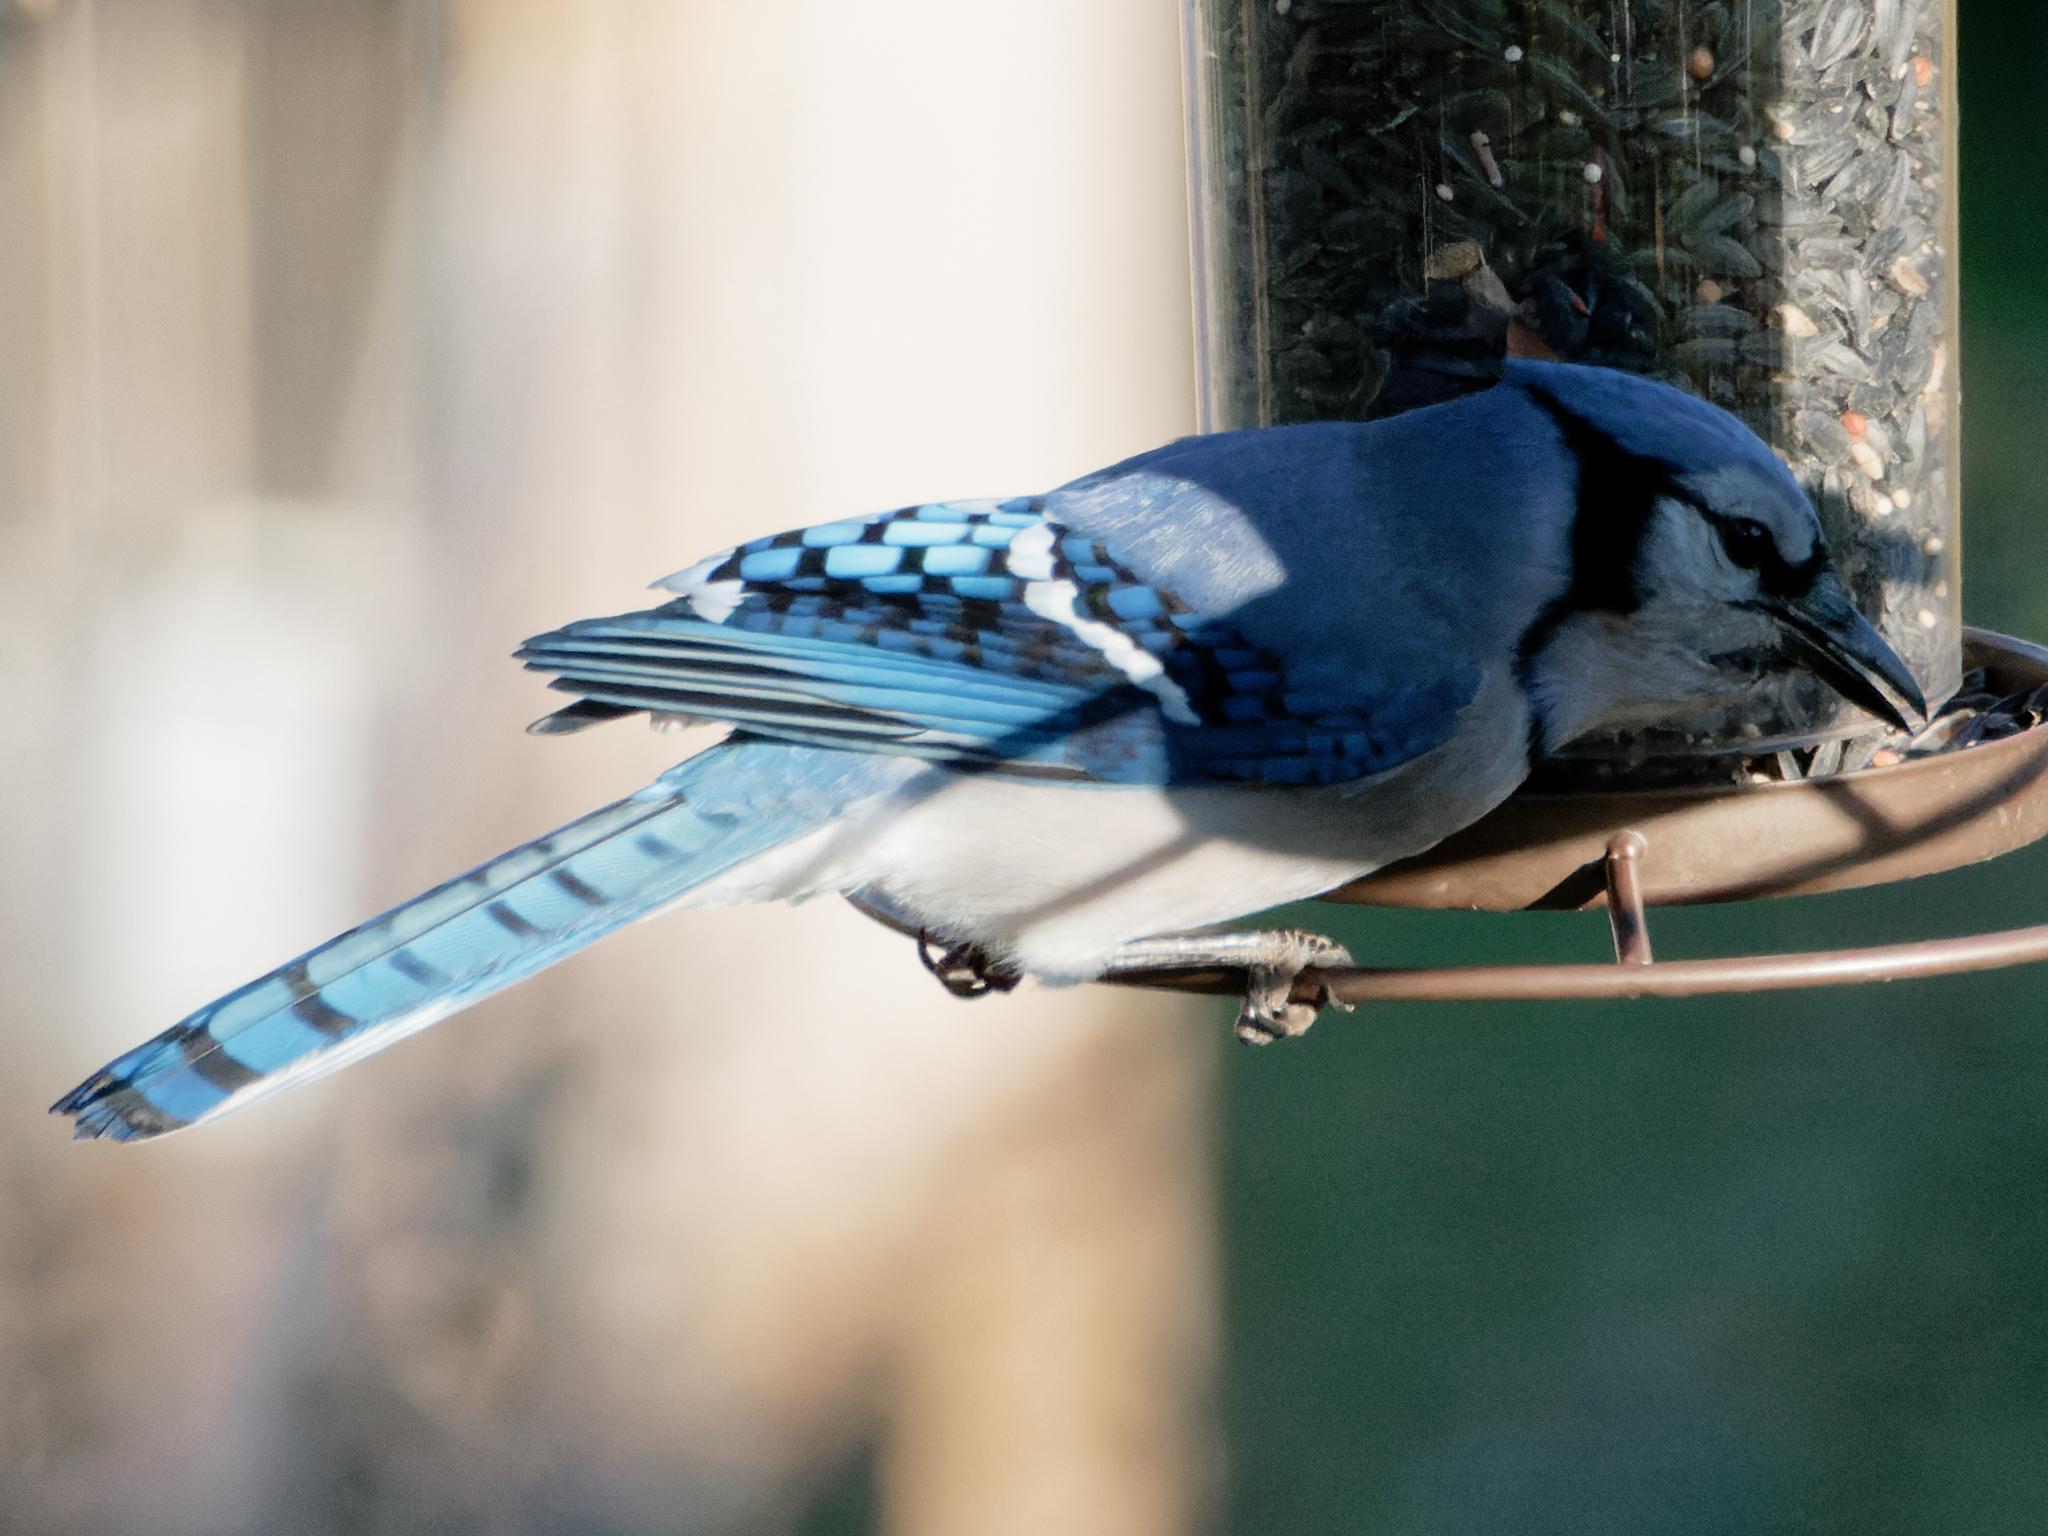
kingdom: Animalia
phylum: Chordata
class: Aves
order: Passeriformes
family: Corvidae
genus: Cyanocitta
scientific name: Cyanocitta cristata
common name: Blue jay
